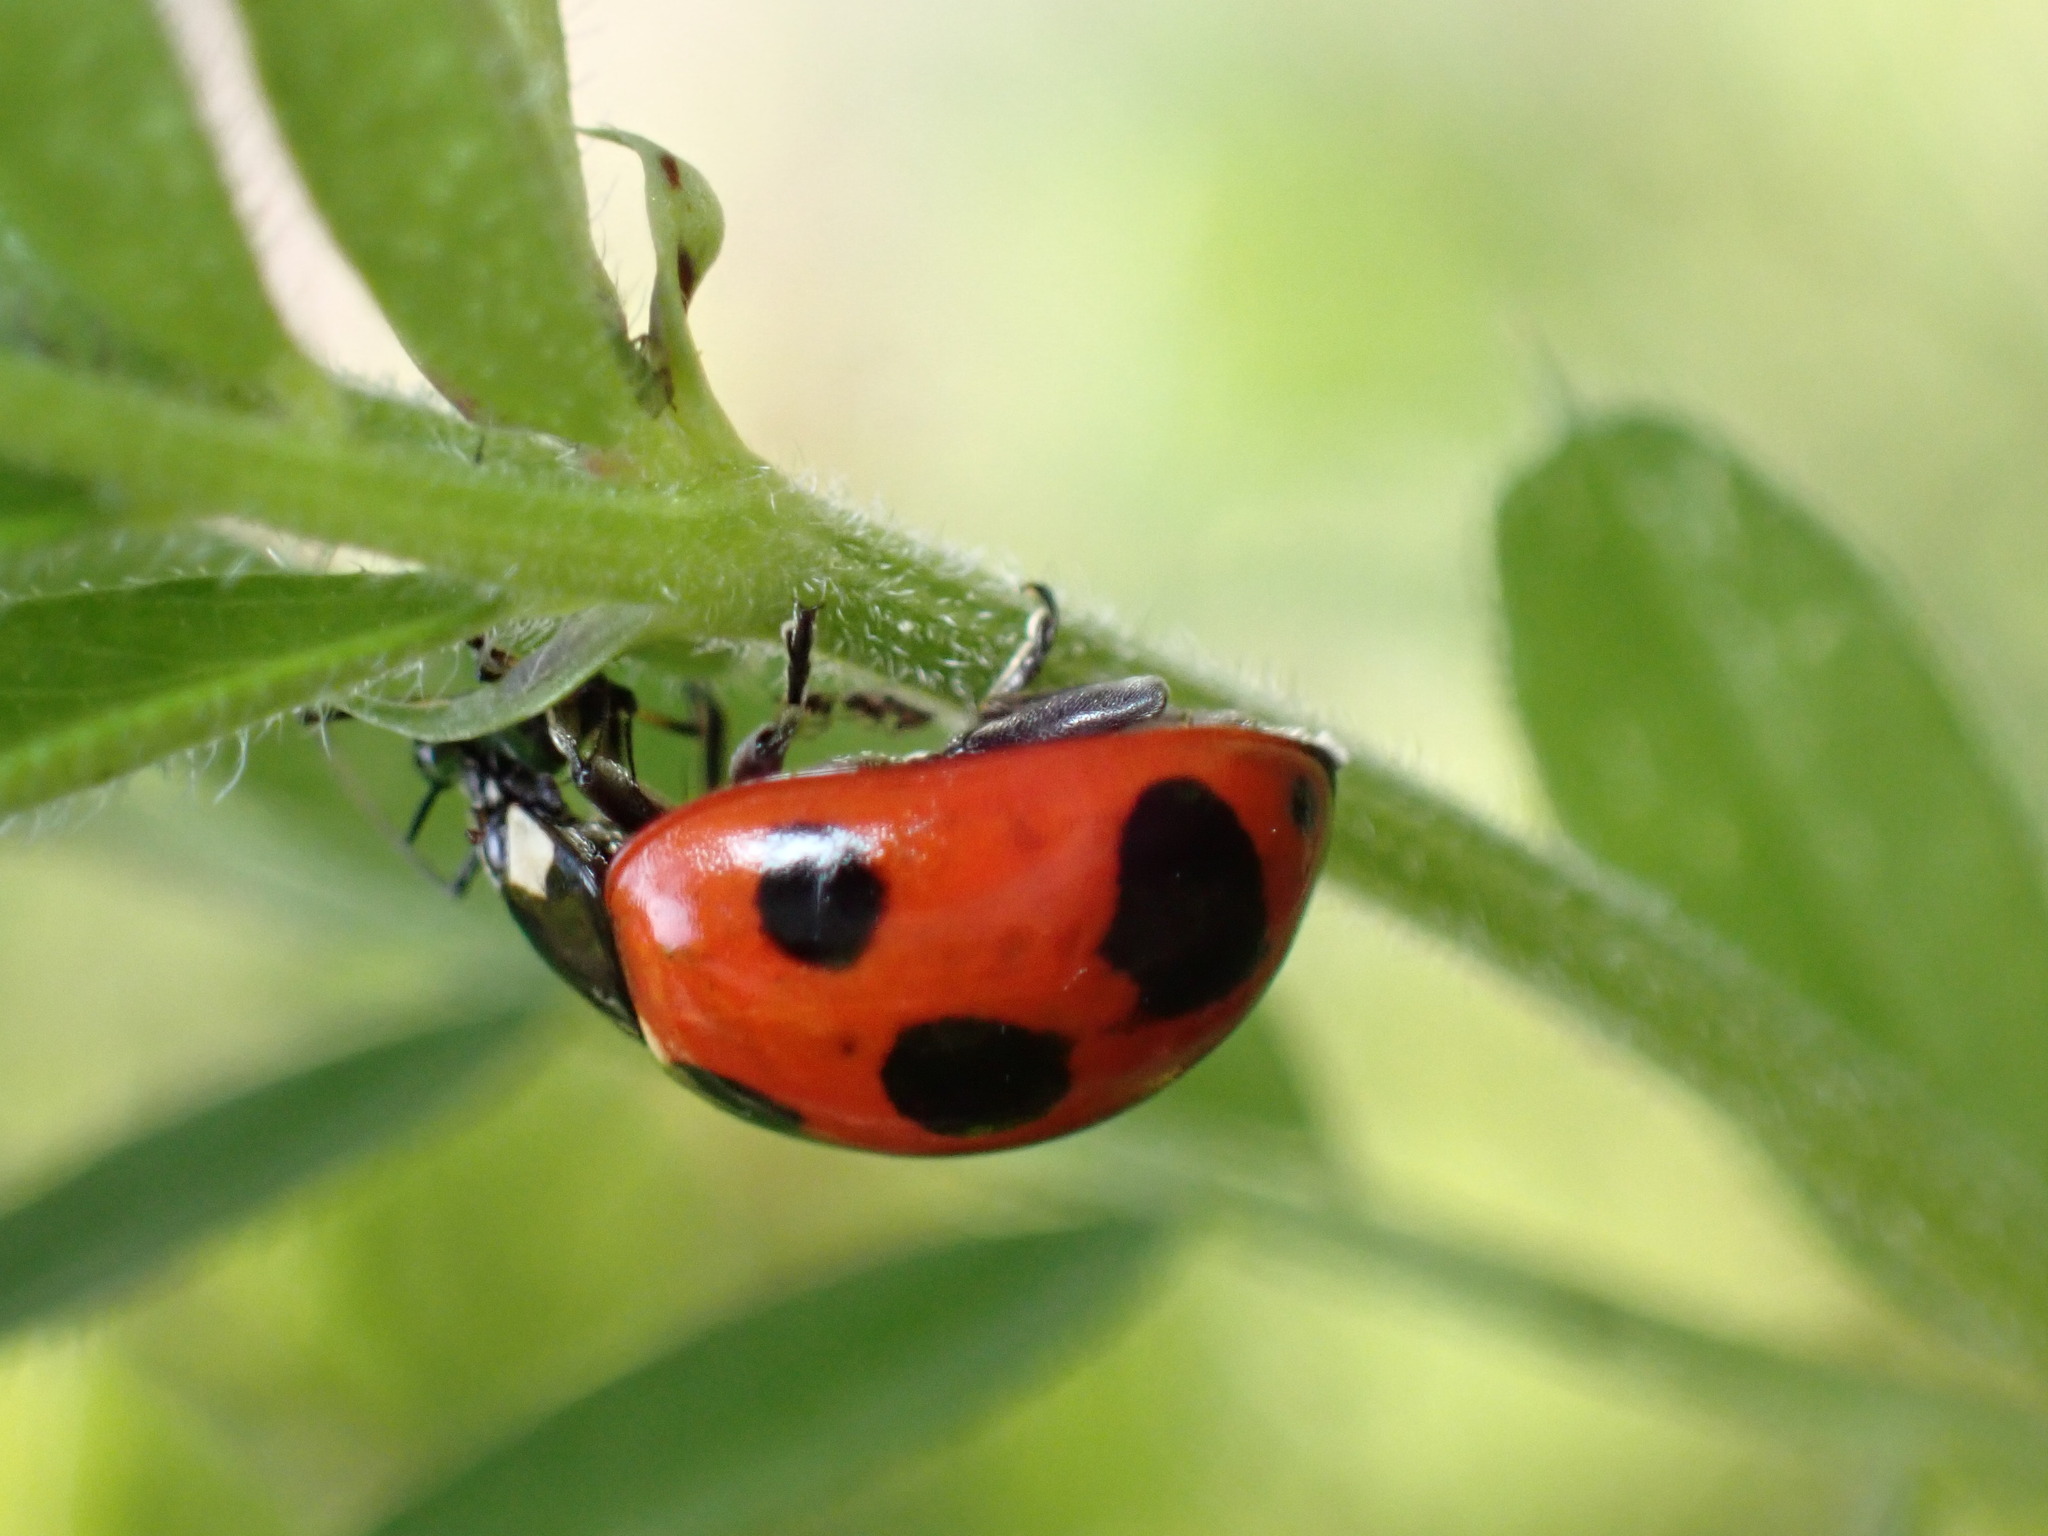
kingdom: Animalia
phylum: Arthropoda
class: Insecta
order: Coleoptera
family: Coccinellidae
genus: Coccinella
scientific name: Coccinella septempunctata
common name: Sevenspotted lady beetle
